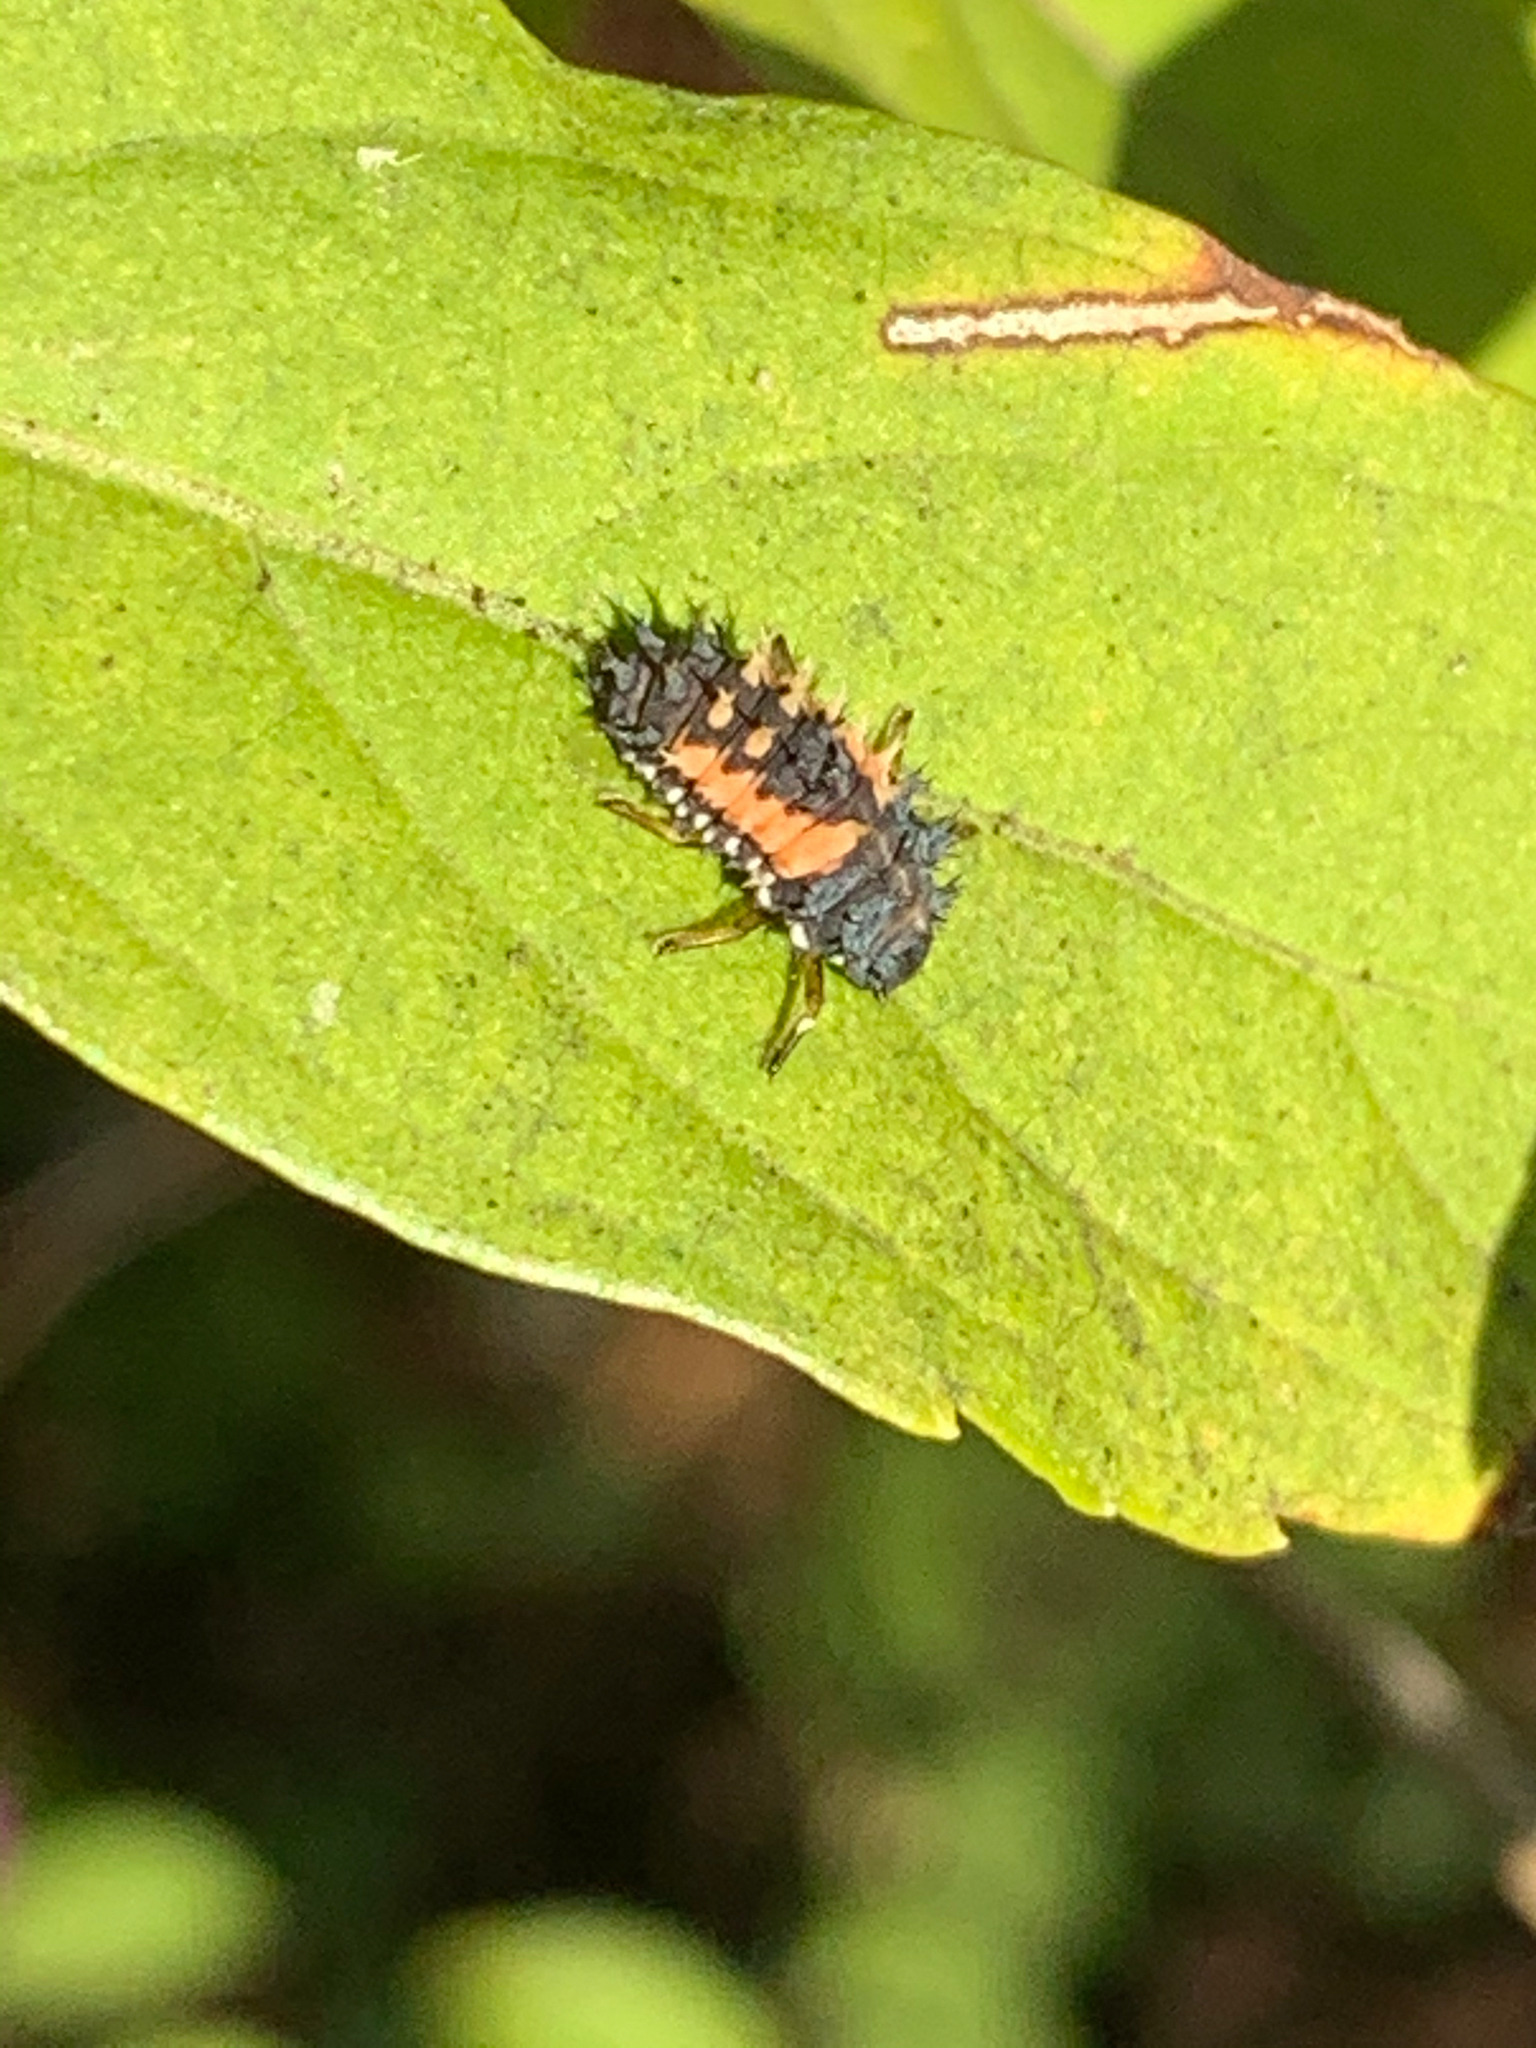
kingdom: Animalia
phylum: Arthropoda
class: Insecta
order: Coleoptera
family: Coccinellidae
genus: Harmonia
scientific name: Harmonia axyridis
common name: Harlequin ladybird
